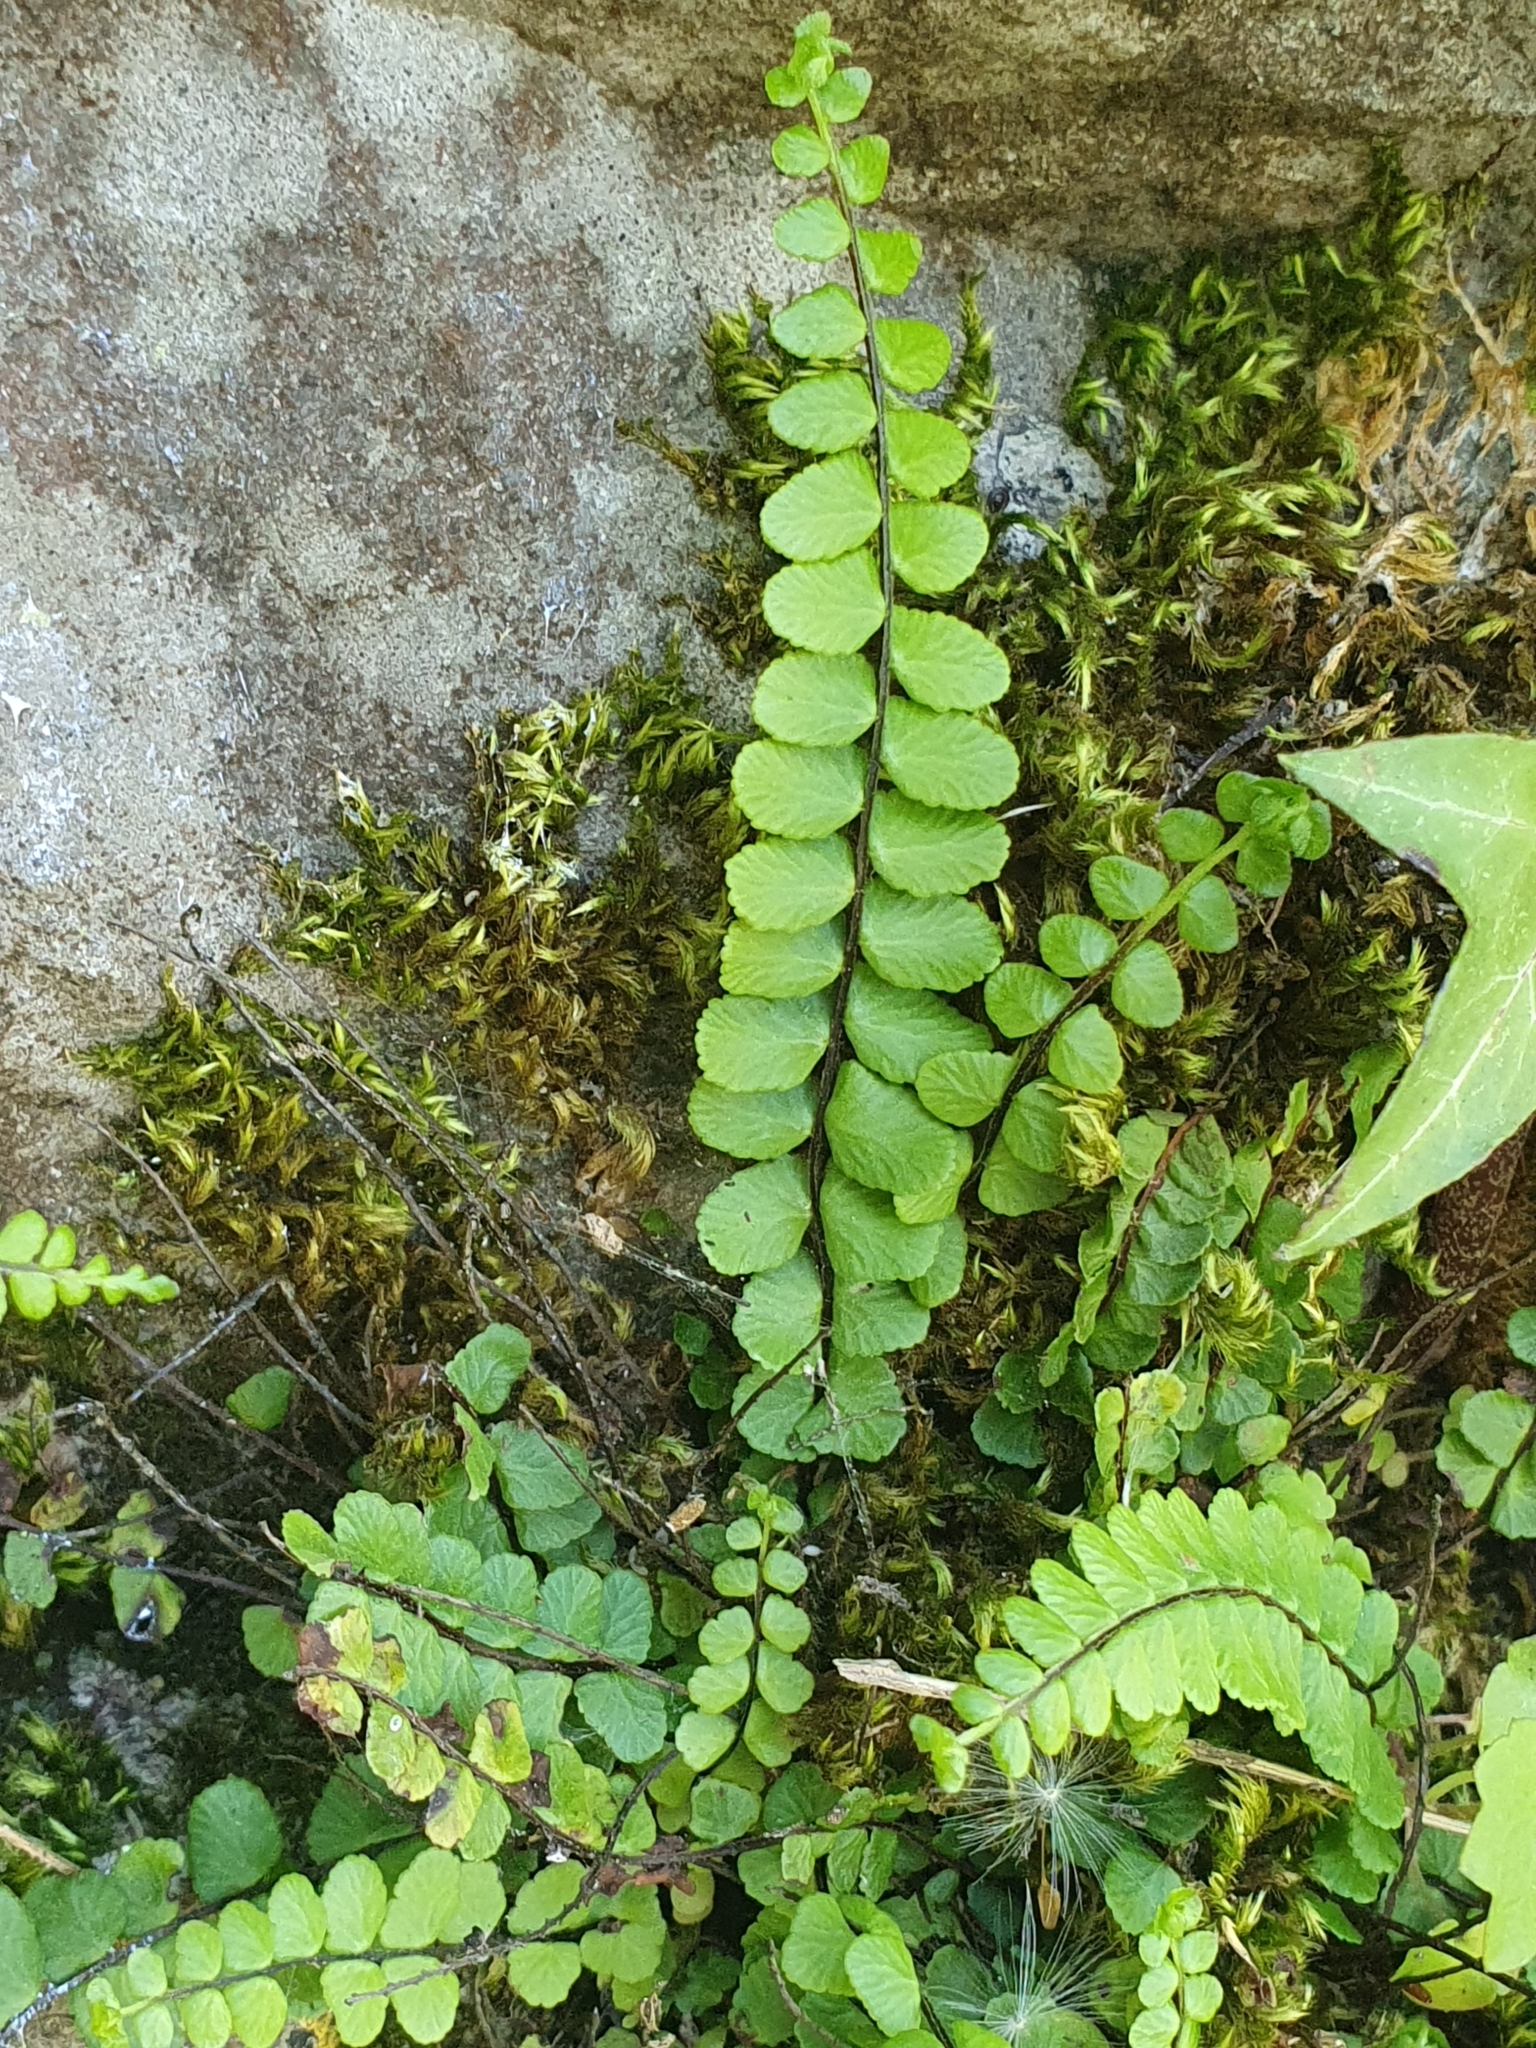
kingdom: Plantae
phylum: Tracheophyta
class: Polypodiopsida
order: Polypodiales
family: Aspleniaceae
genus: Asplenium
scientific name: Asplenium trichomanes
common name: Maidenhair spleenwort
